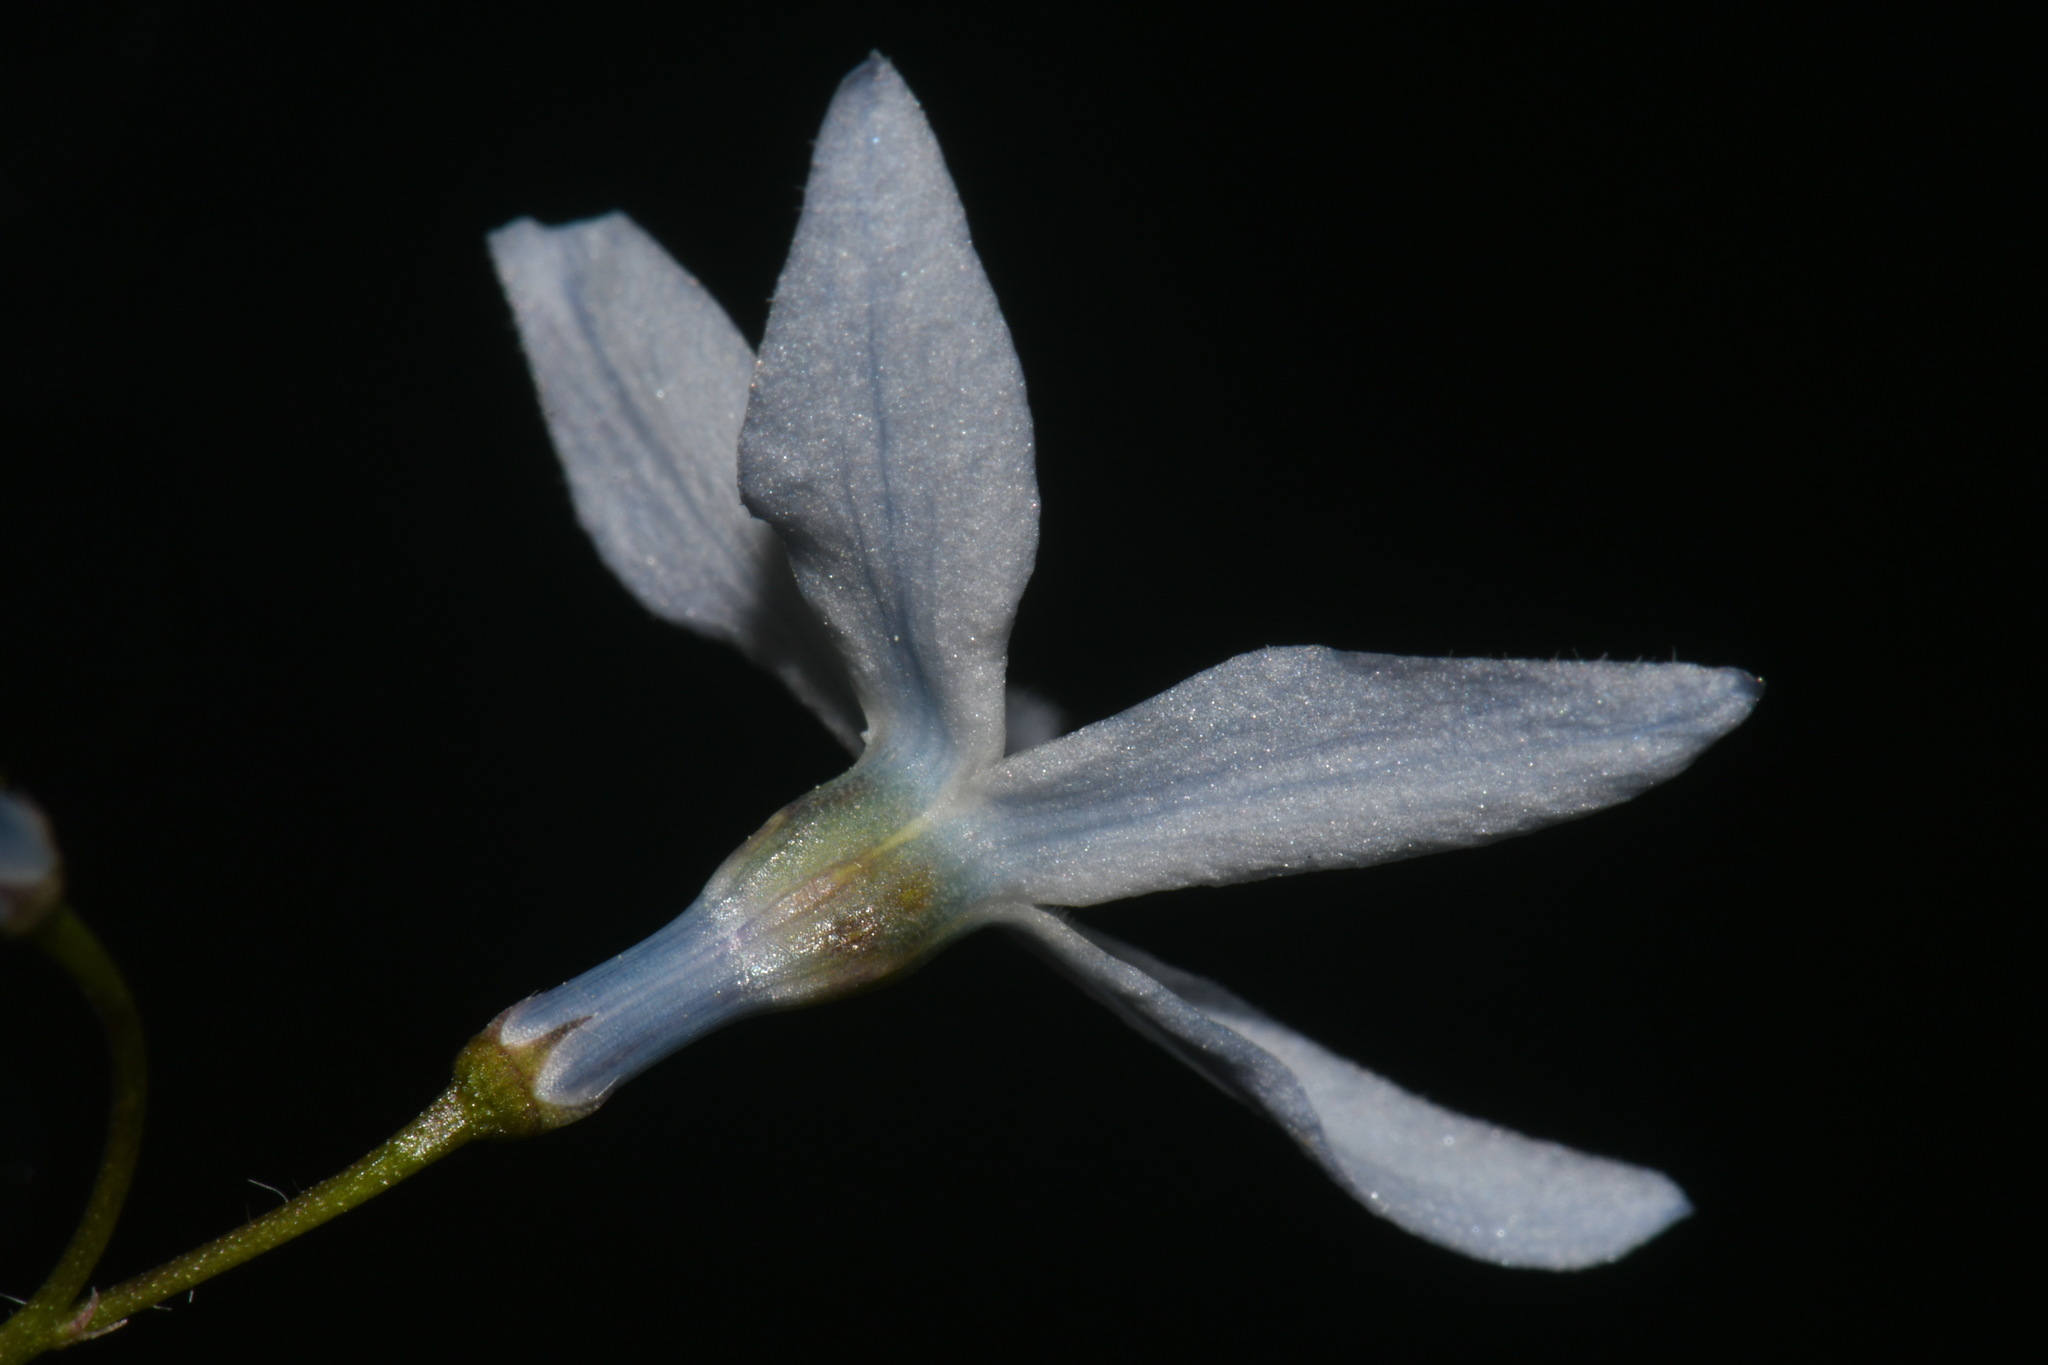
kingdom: Plantae
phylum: Tracheophyta
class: Magnoliopsida
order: Gentianales
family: Apocynaceae
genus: Amsonia
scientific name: Amsonia ciliata
